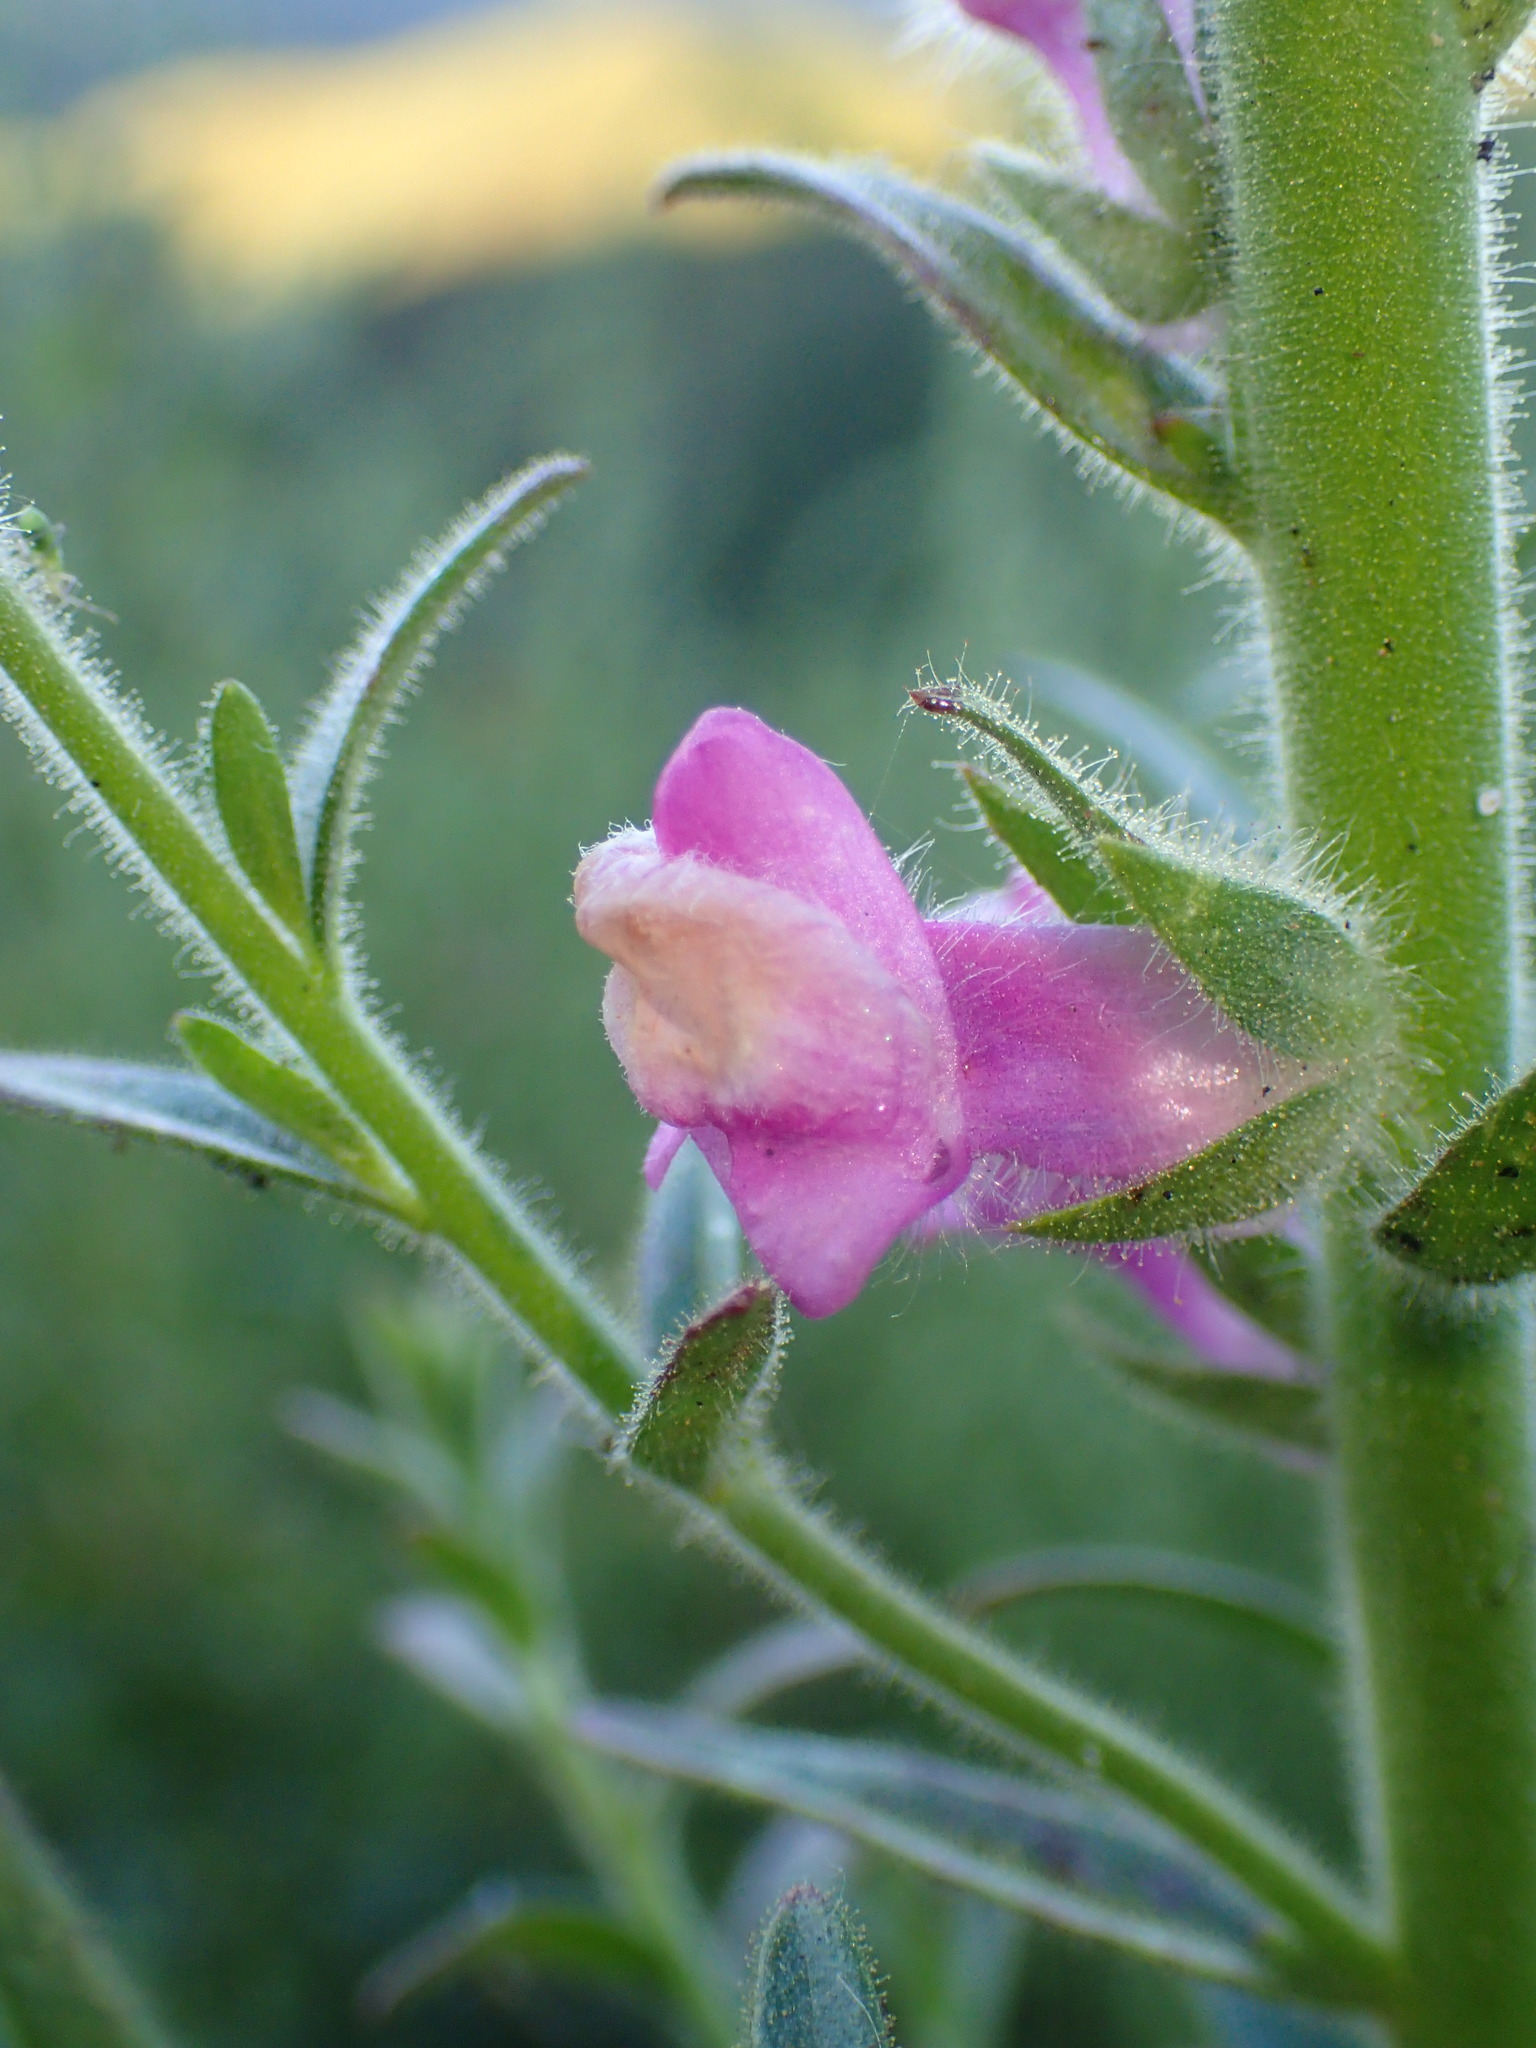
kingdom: Plantae
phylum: Tracheophyta
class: Magnoliopsida
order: Lamiales
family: Plantaginaceae
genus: Sairocarpus
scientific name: Sairocarpus multiflorus
